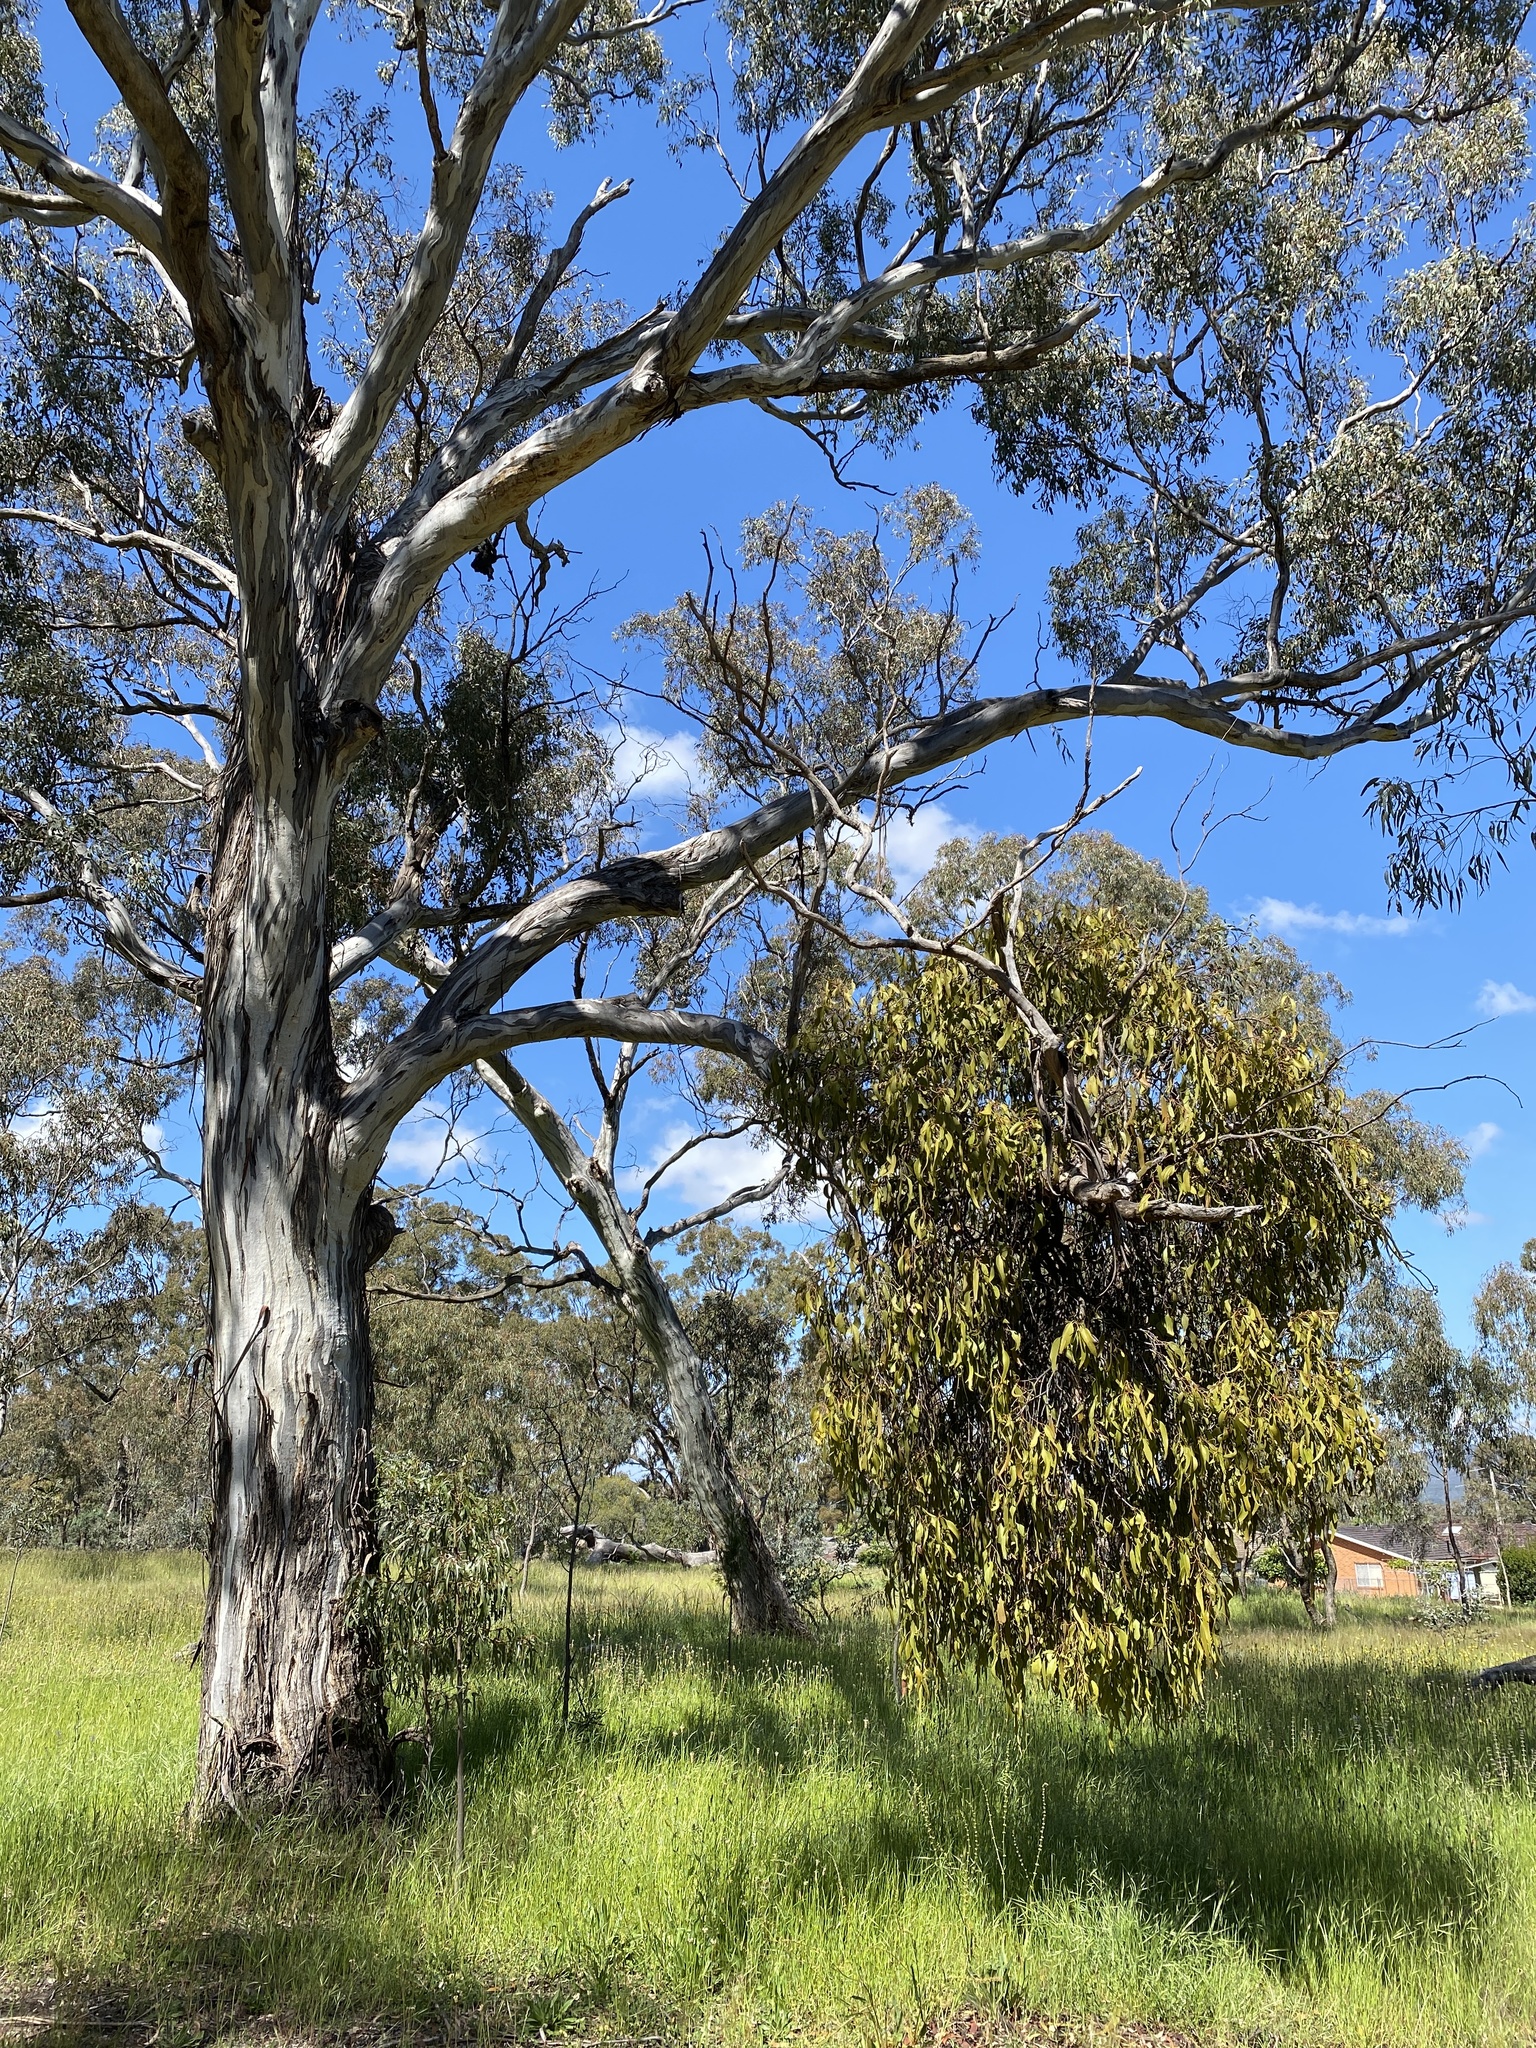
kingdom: Plantae
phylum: Tracheophyta
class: Magnoliopsida
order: Santalales
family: Loranthaceae
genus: Amyema
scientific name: Amyema miquelii
